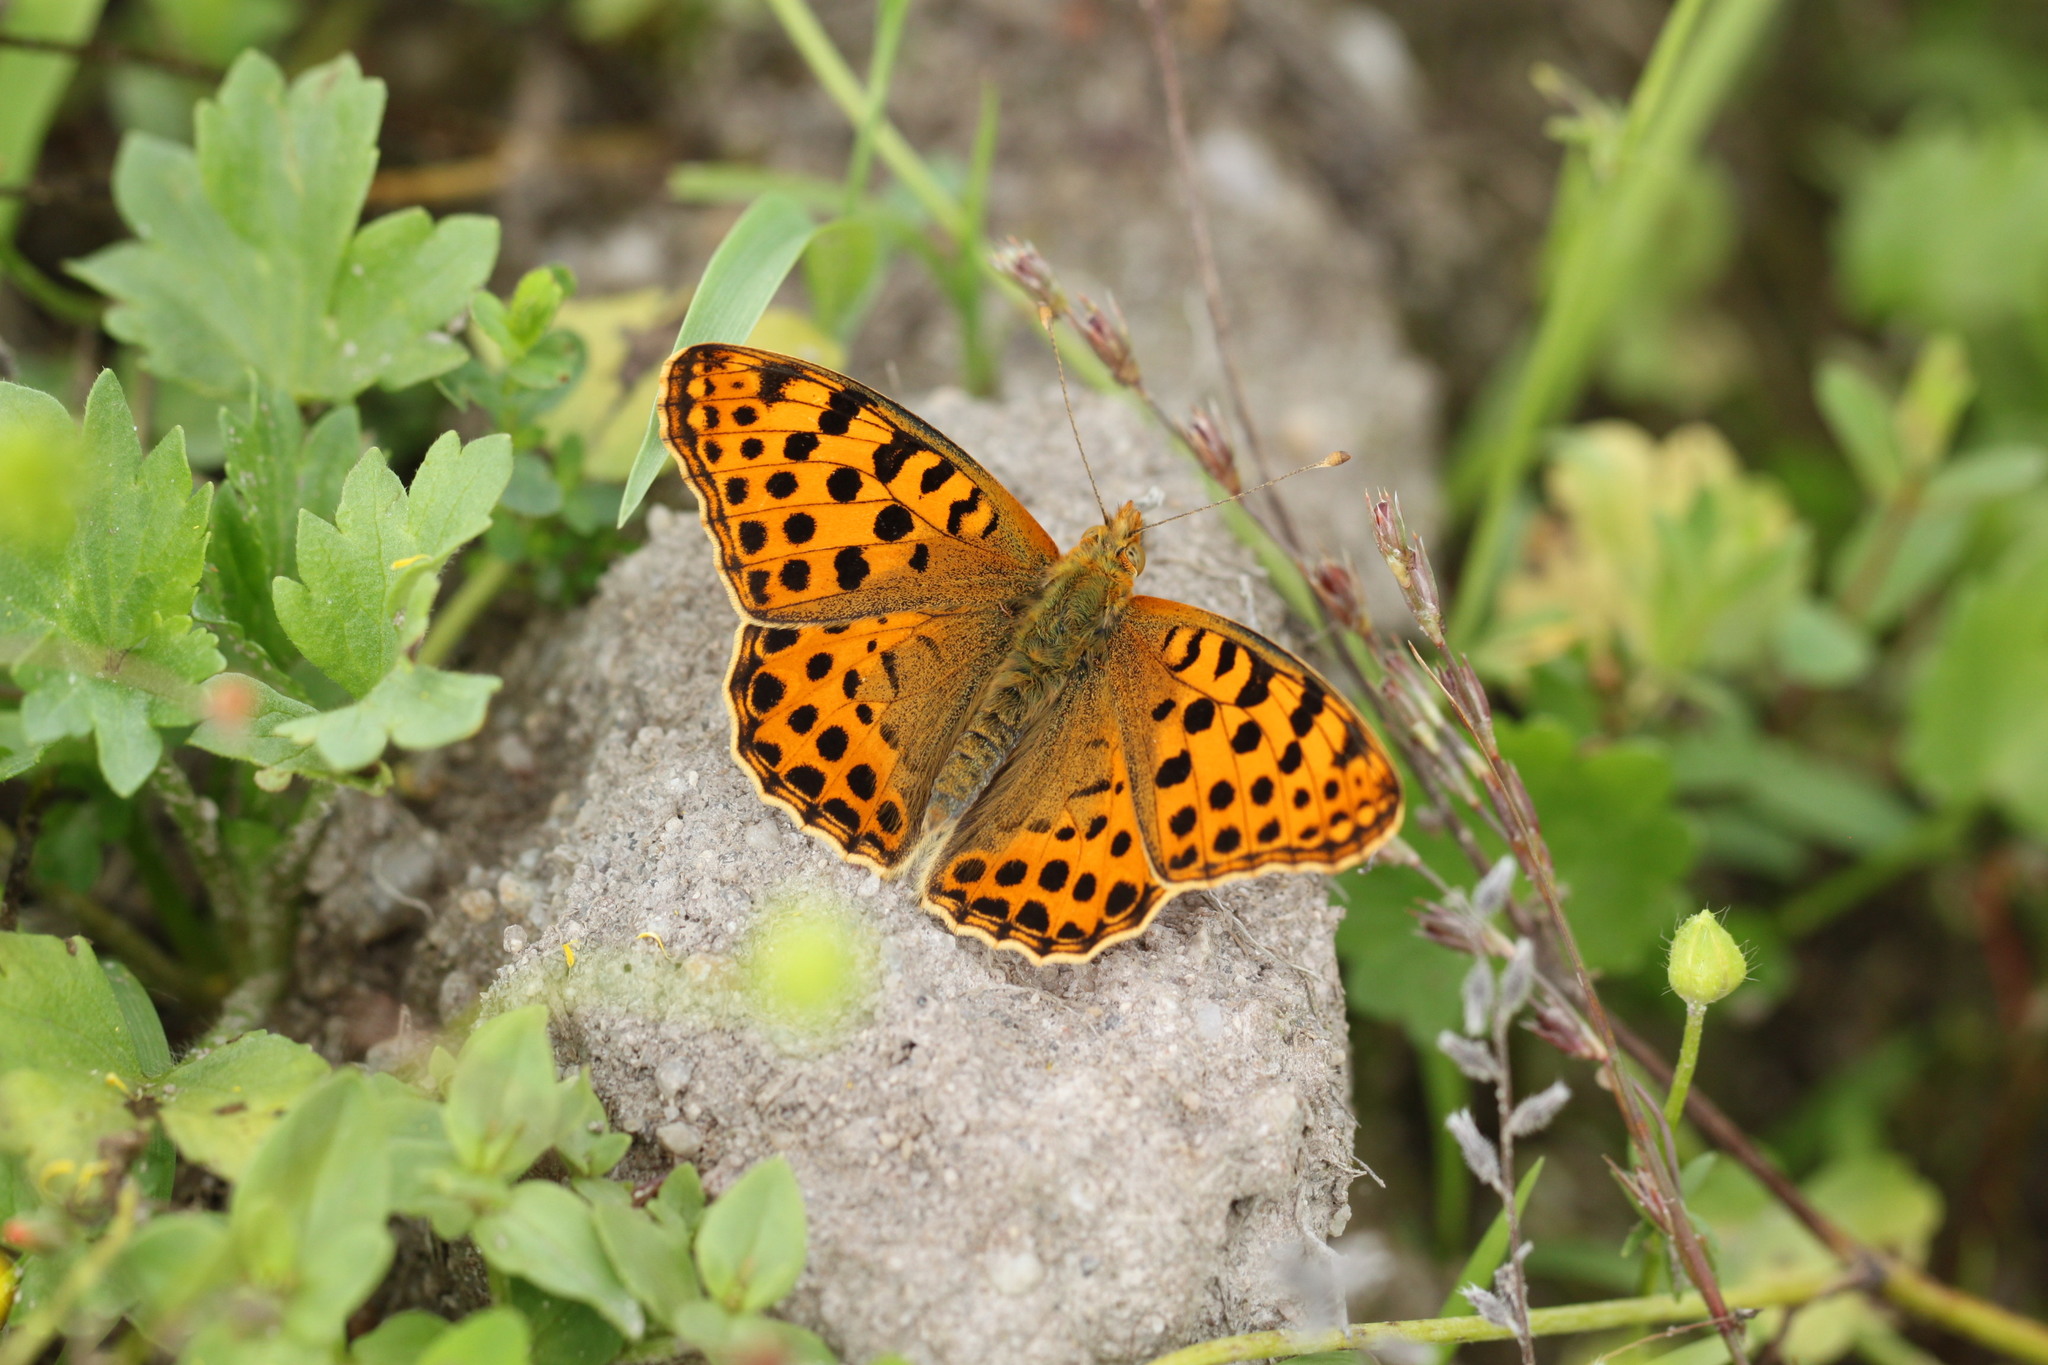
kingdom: Animalia
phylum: Arthropoda
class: Insecta
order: Lepidoptera
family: Nymphalidae
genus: Issoria
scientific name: Issoria lathonia
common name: Queen of spain fritillary
